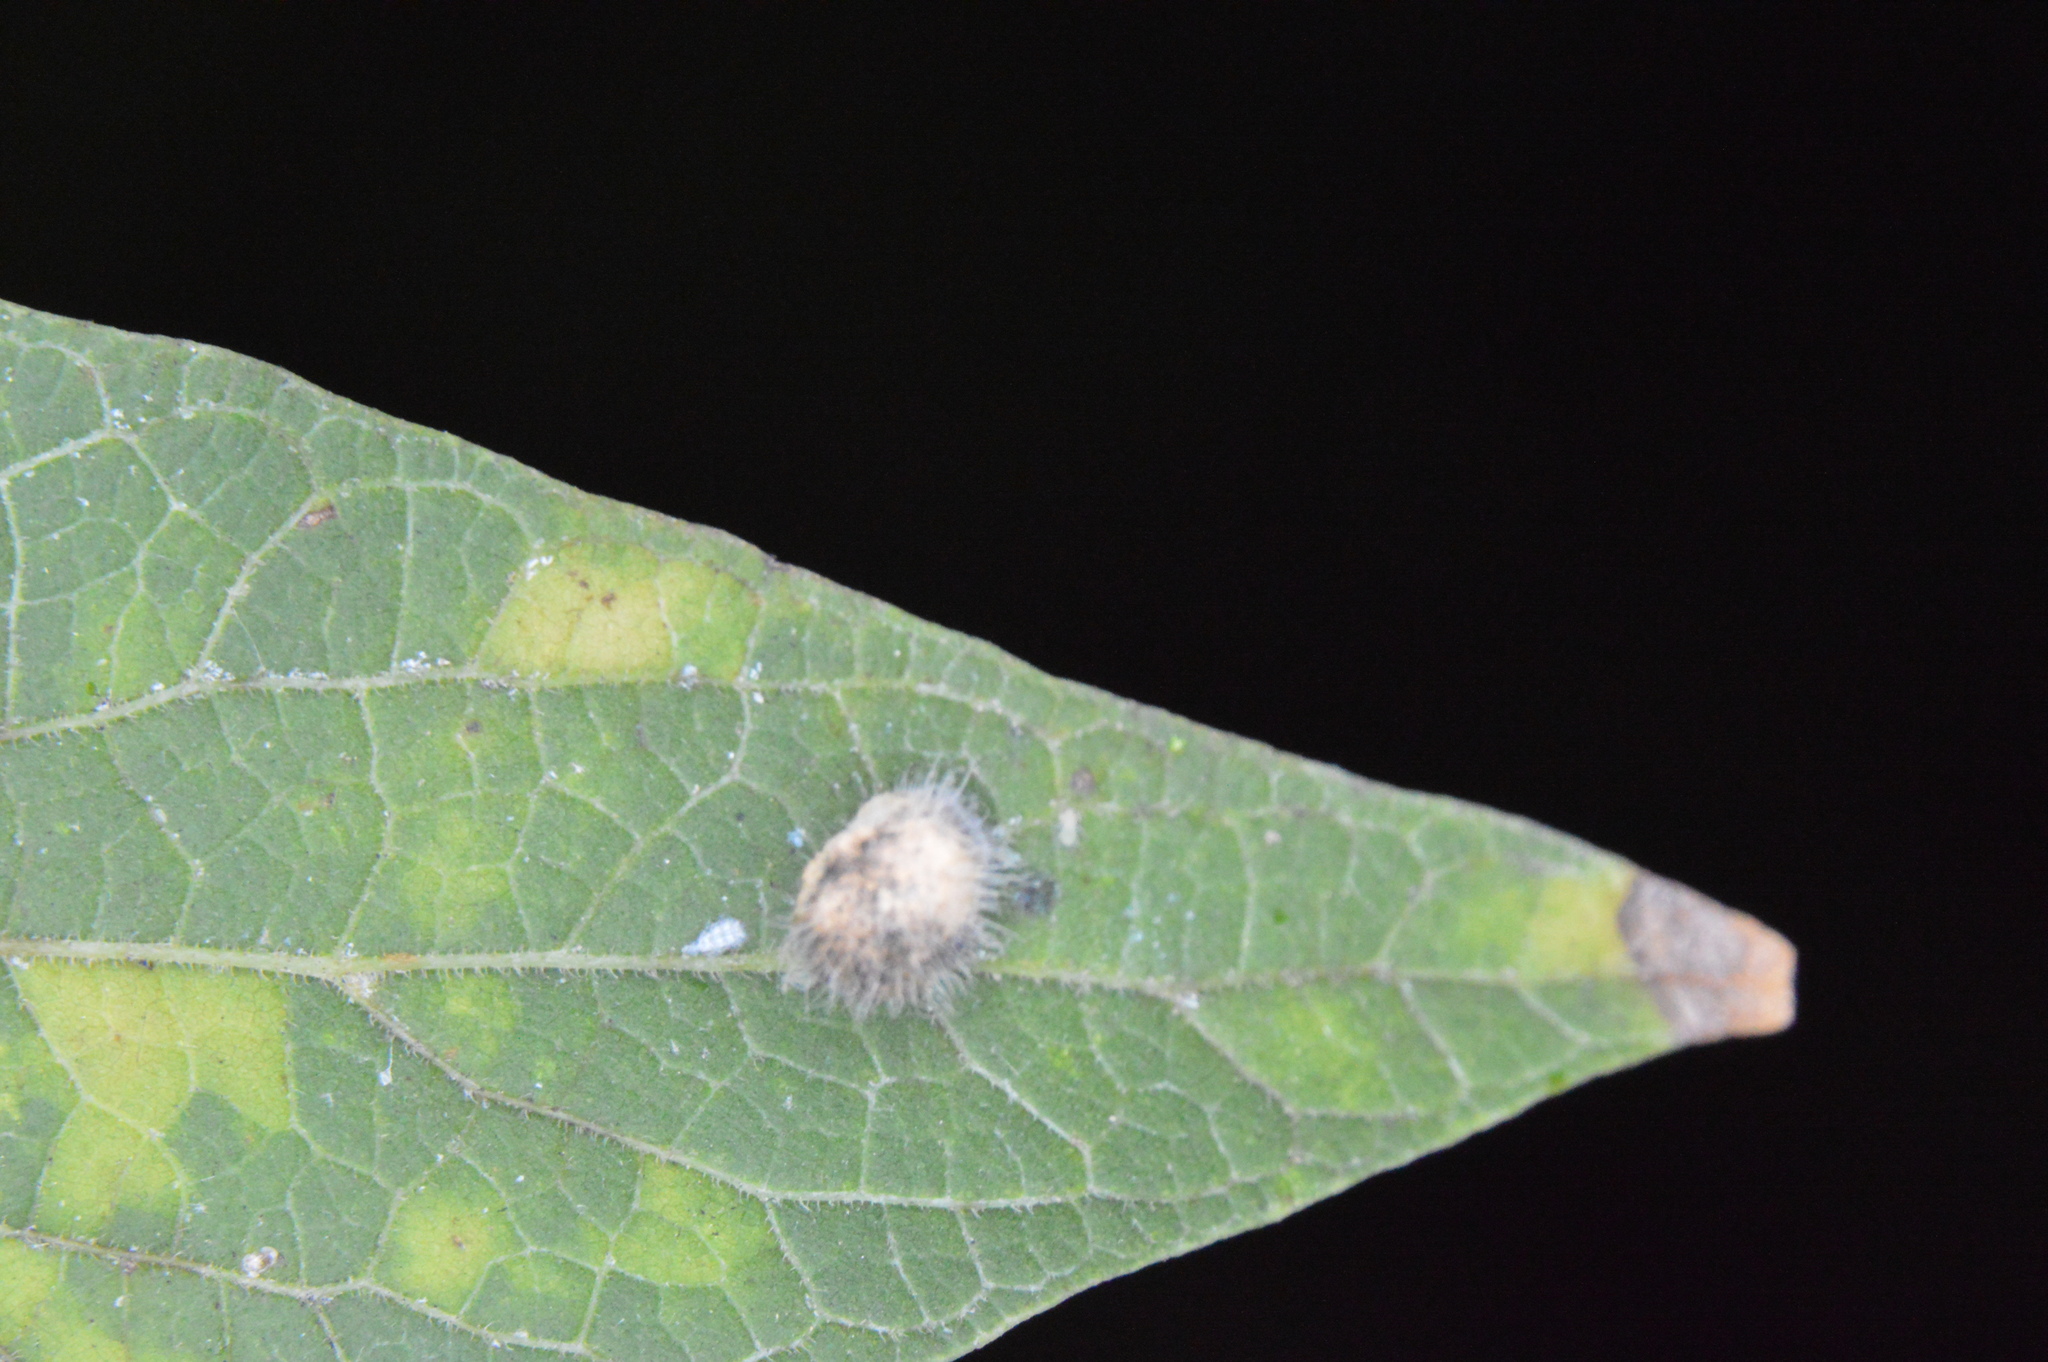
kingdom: Animalia
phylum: Arthropoda
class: Insecta
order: Diptera
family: Cecidomyiidae
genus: Celticecis
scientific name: Celticecis pubescens
